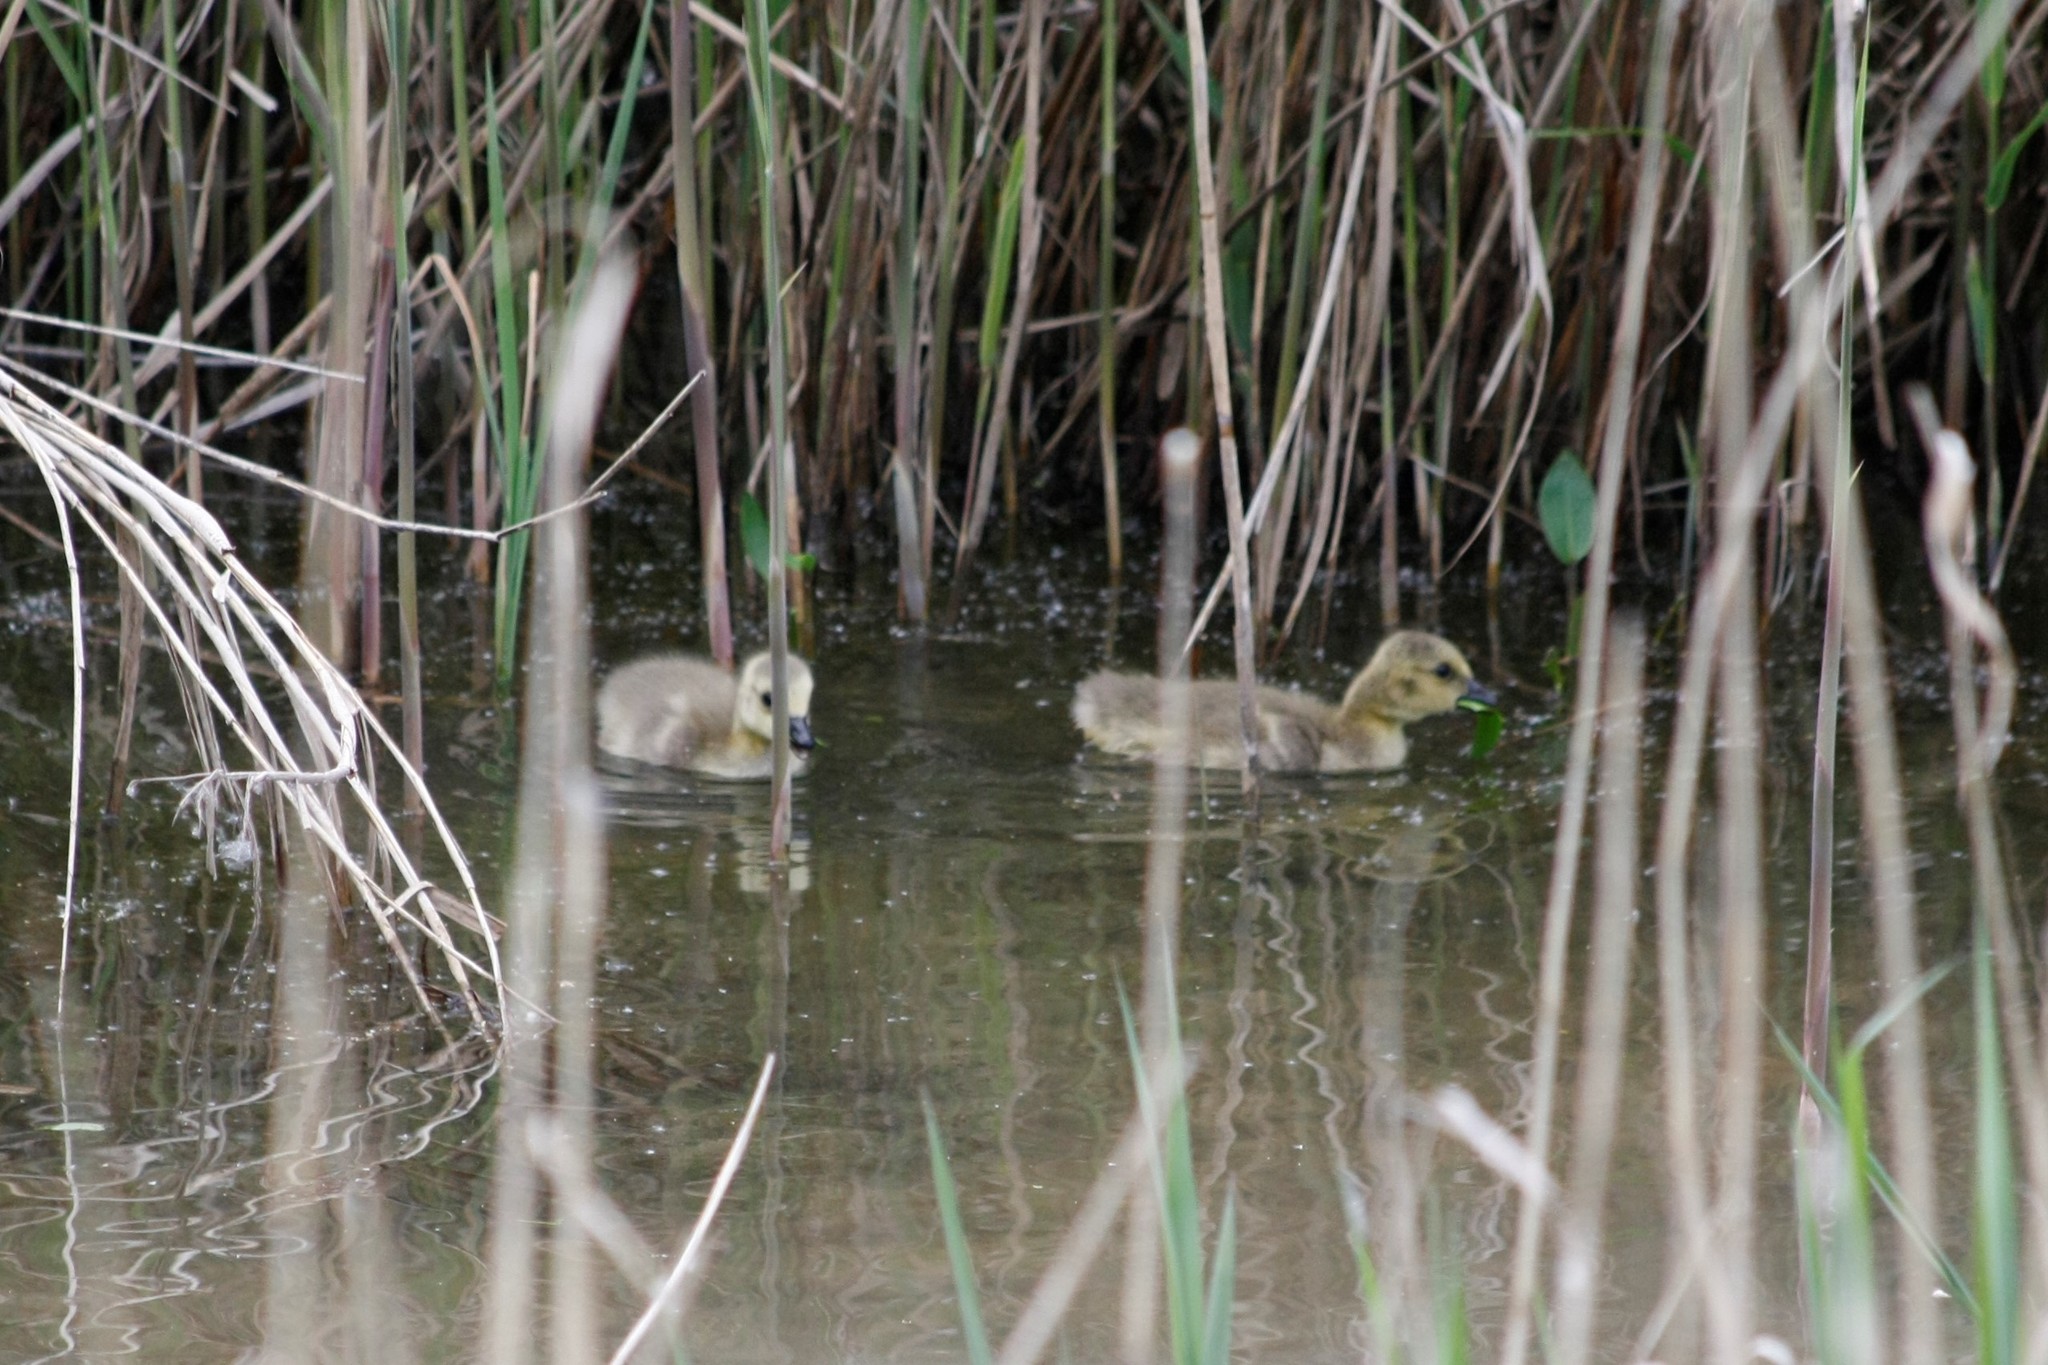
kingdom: Animalia
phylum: Chordata
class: Aves
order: Anseriformes
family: Anatidae
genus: Branta
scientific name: Branta canadensis
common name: Canada goose
